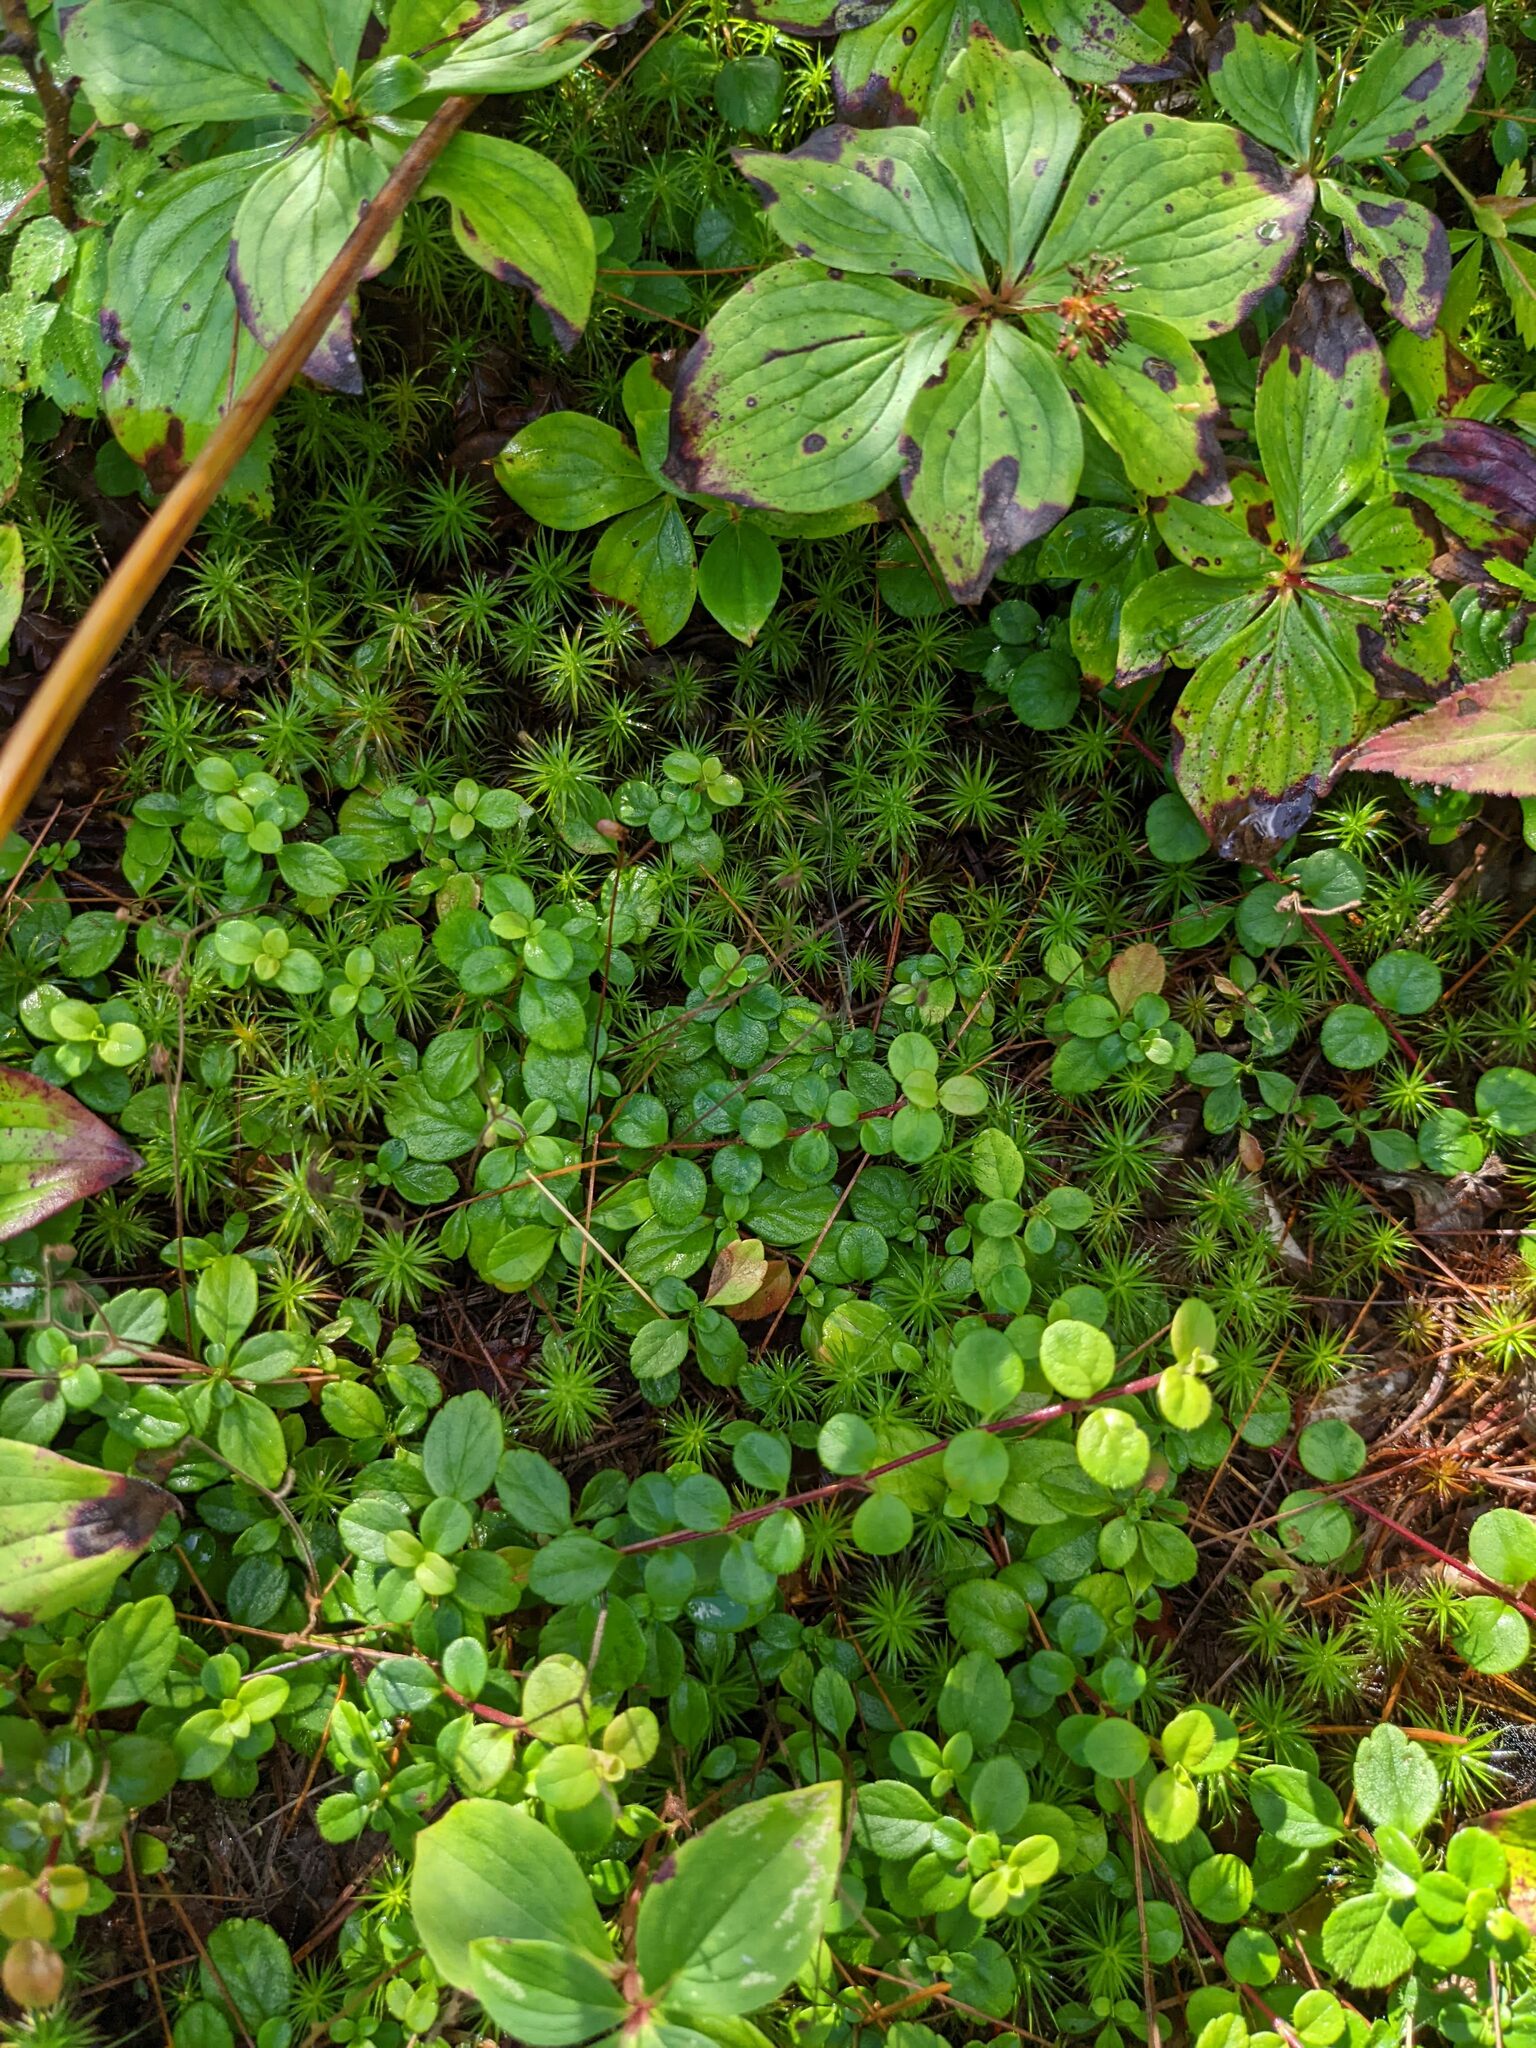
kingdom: Plantae
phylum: Tracheophyta
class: Magnoliopsida
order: Ericales
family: Ericaceae
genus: Gaultheria
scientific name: Gaultheria hispidula
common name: Cancer wintergreen
